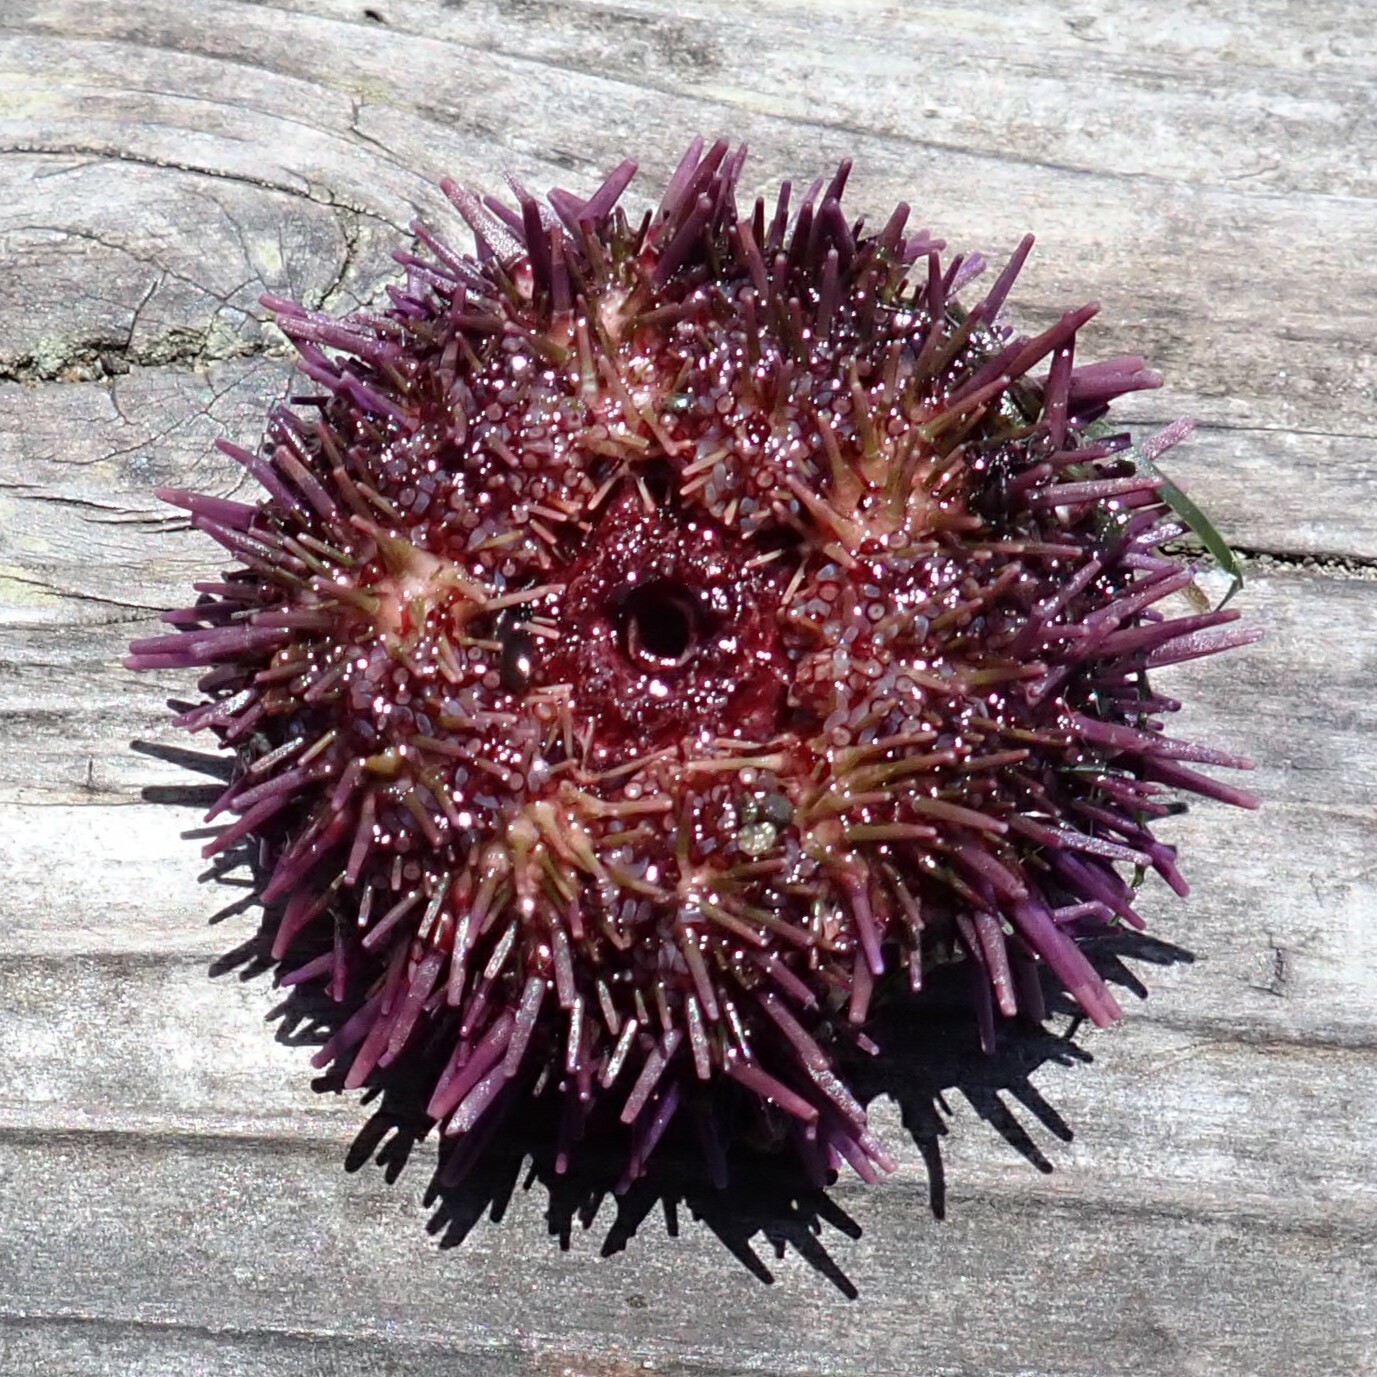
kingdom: Animalia
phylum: Echinodermata
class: Echinoidea
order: Camarodonta
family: Strongylocentrotidae
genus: Strongylocentrotus
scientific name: Strongylocentrotus purpuratus
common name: Purple sea urchin
